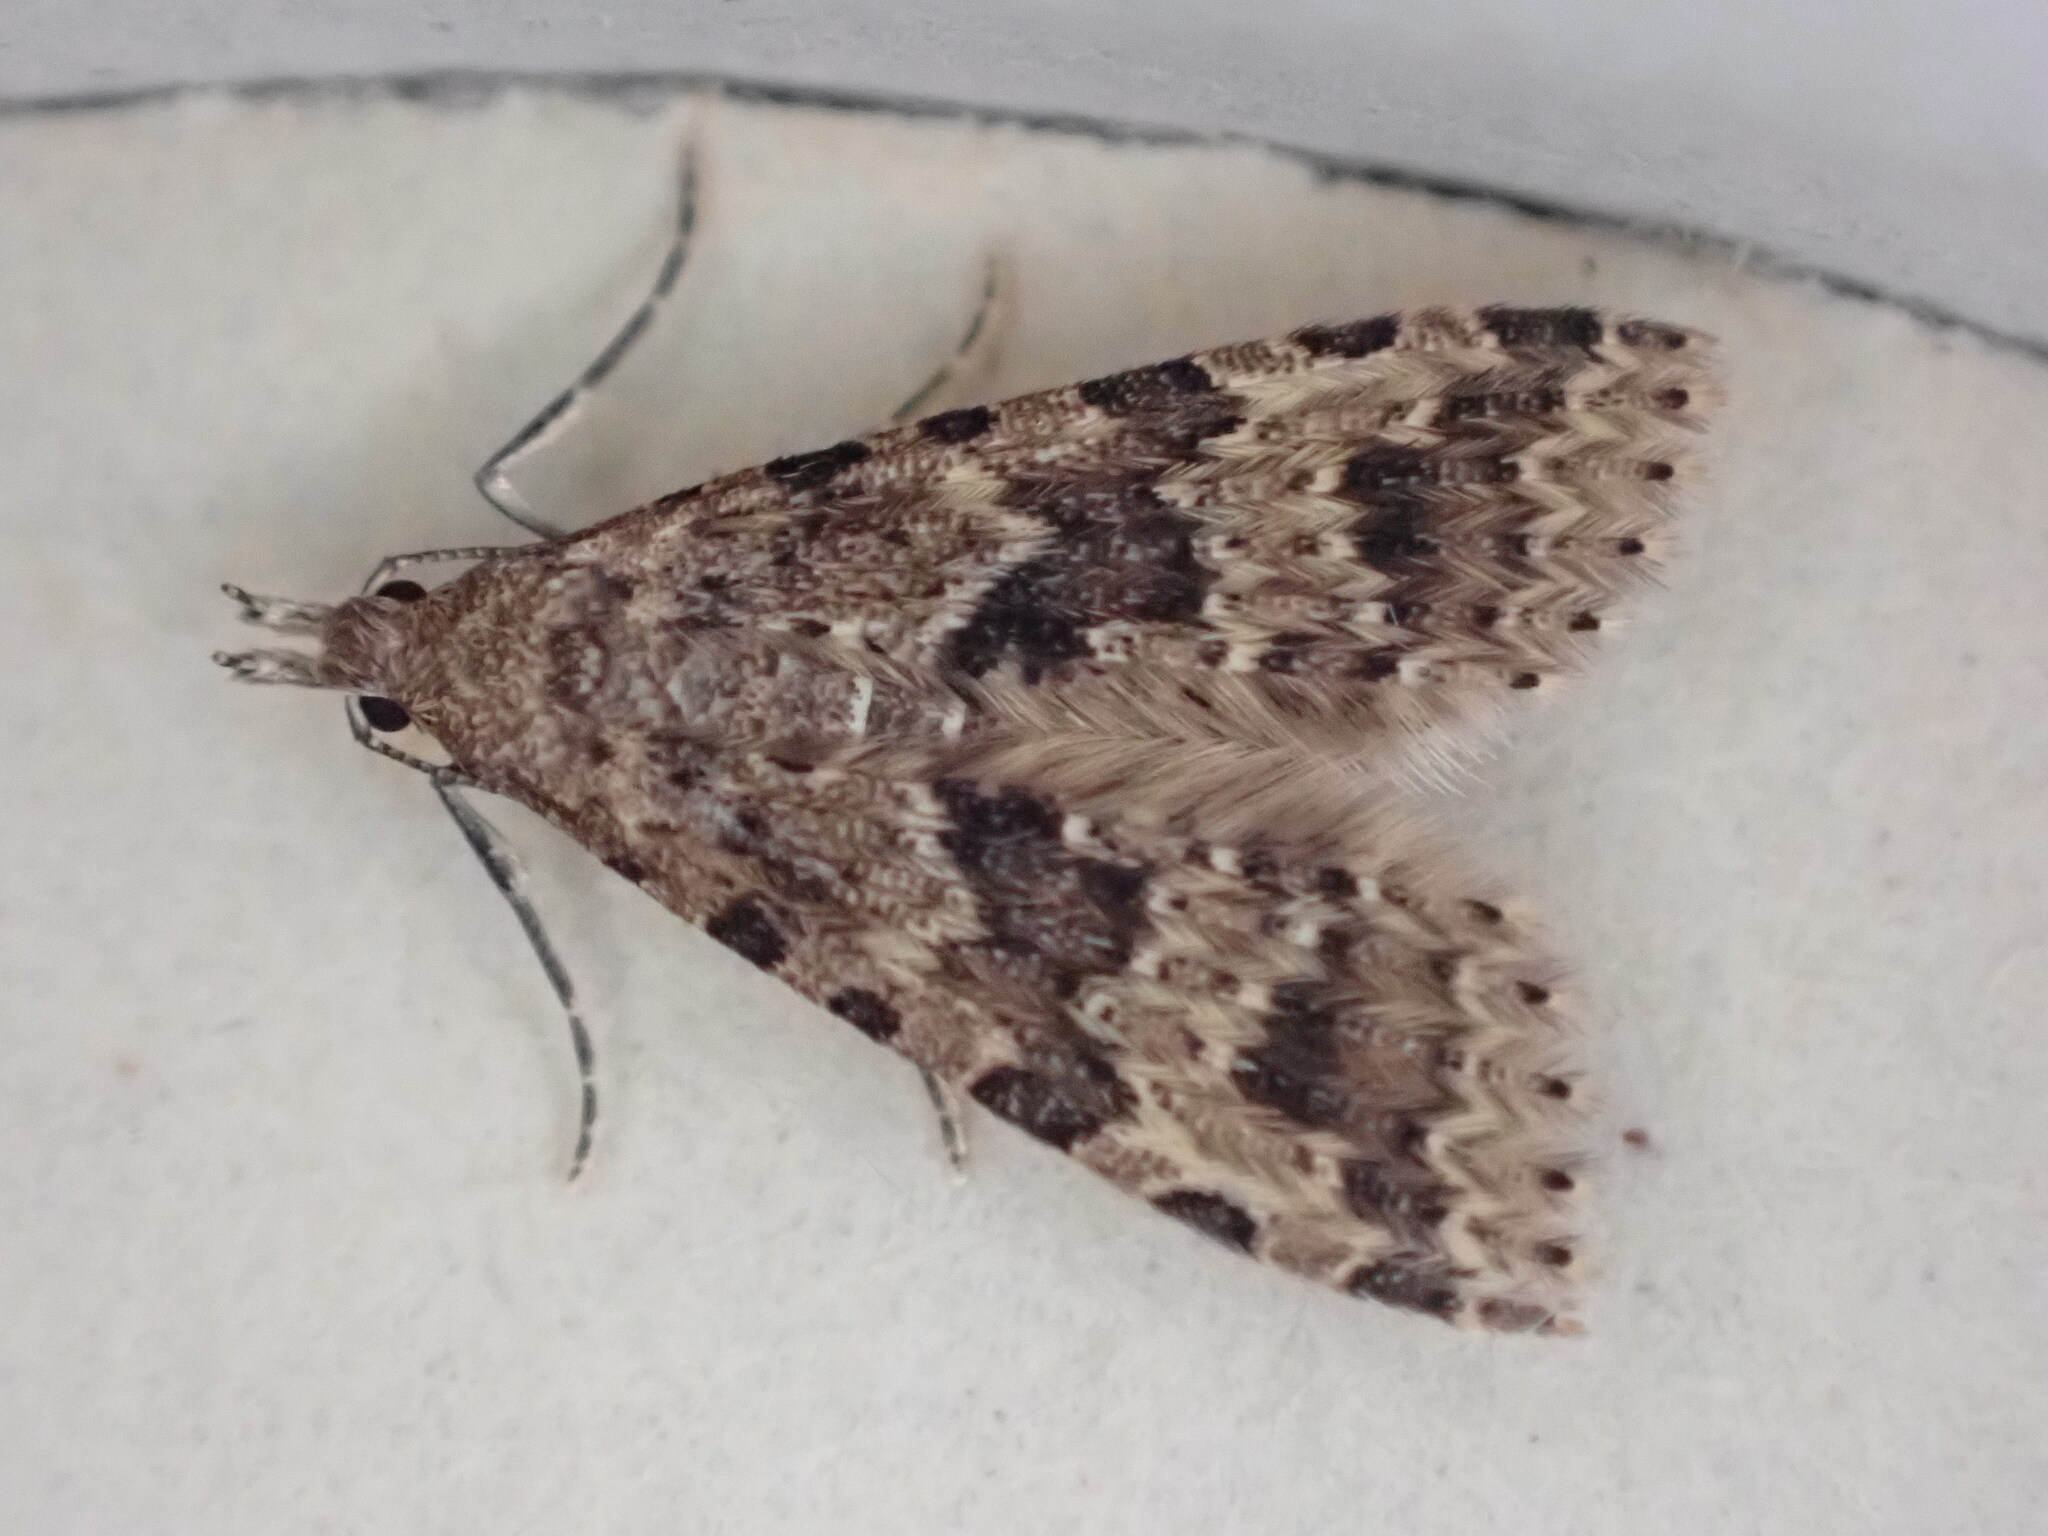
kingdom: Animalia
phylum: Arthropoda
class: Insecta
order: Lepidoptera
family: Alucitidae
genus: Alucita
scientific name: Alucita hexadactyla
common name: Twenty-plume moth
